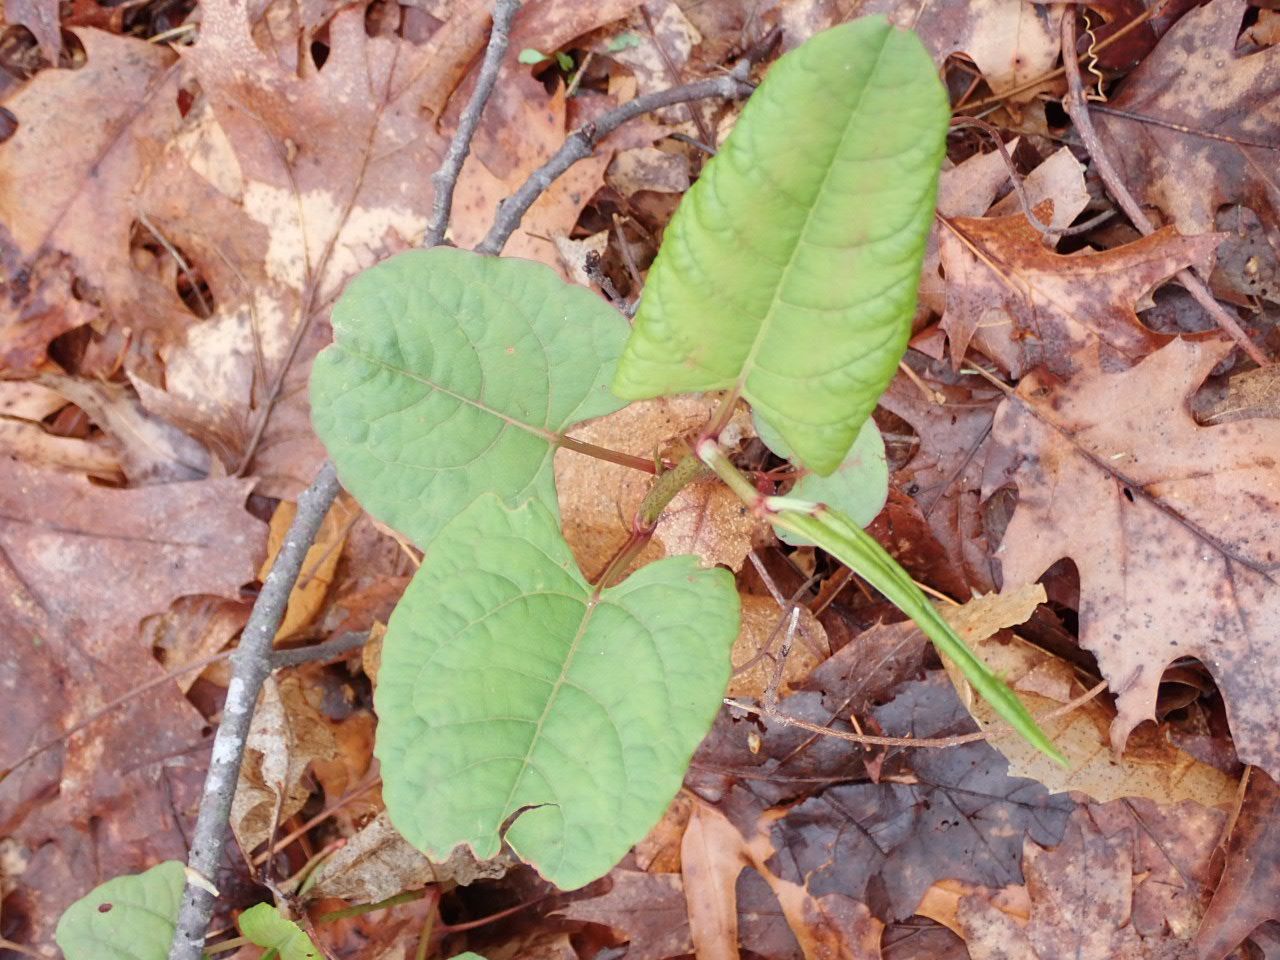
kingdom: Plantae
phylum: Tracheophyta
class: Magnoliopsida
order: Caryophyllales
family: Polygonaceae
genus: Reynoutria
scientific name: Reynoutria japonica
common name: Japanese knotweed
